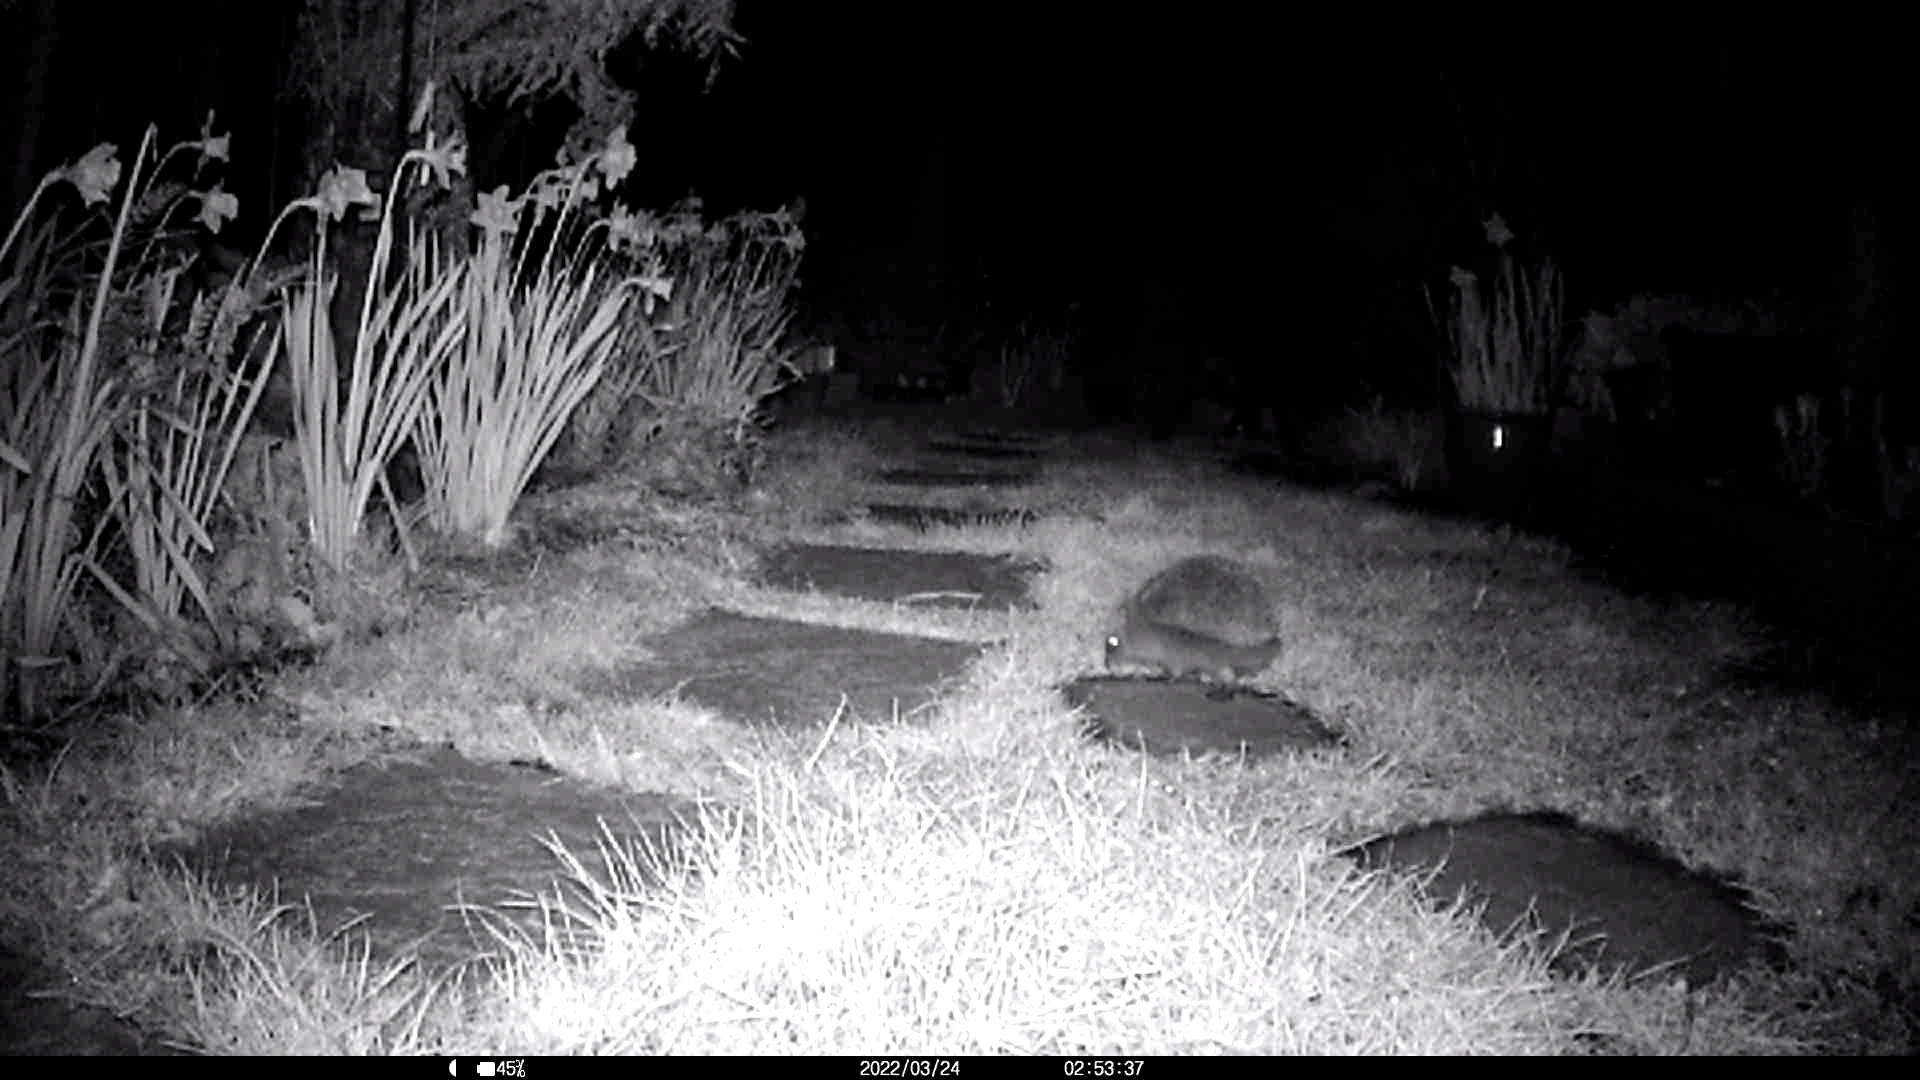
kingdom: Animalia
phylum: Chordata
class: Mammalia
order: Erinaceomorpha
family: Erinaceidae
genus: Erinaceus
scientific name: Erinaceus europaeus
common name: West european hedgehog
